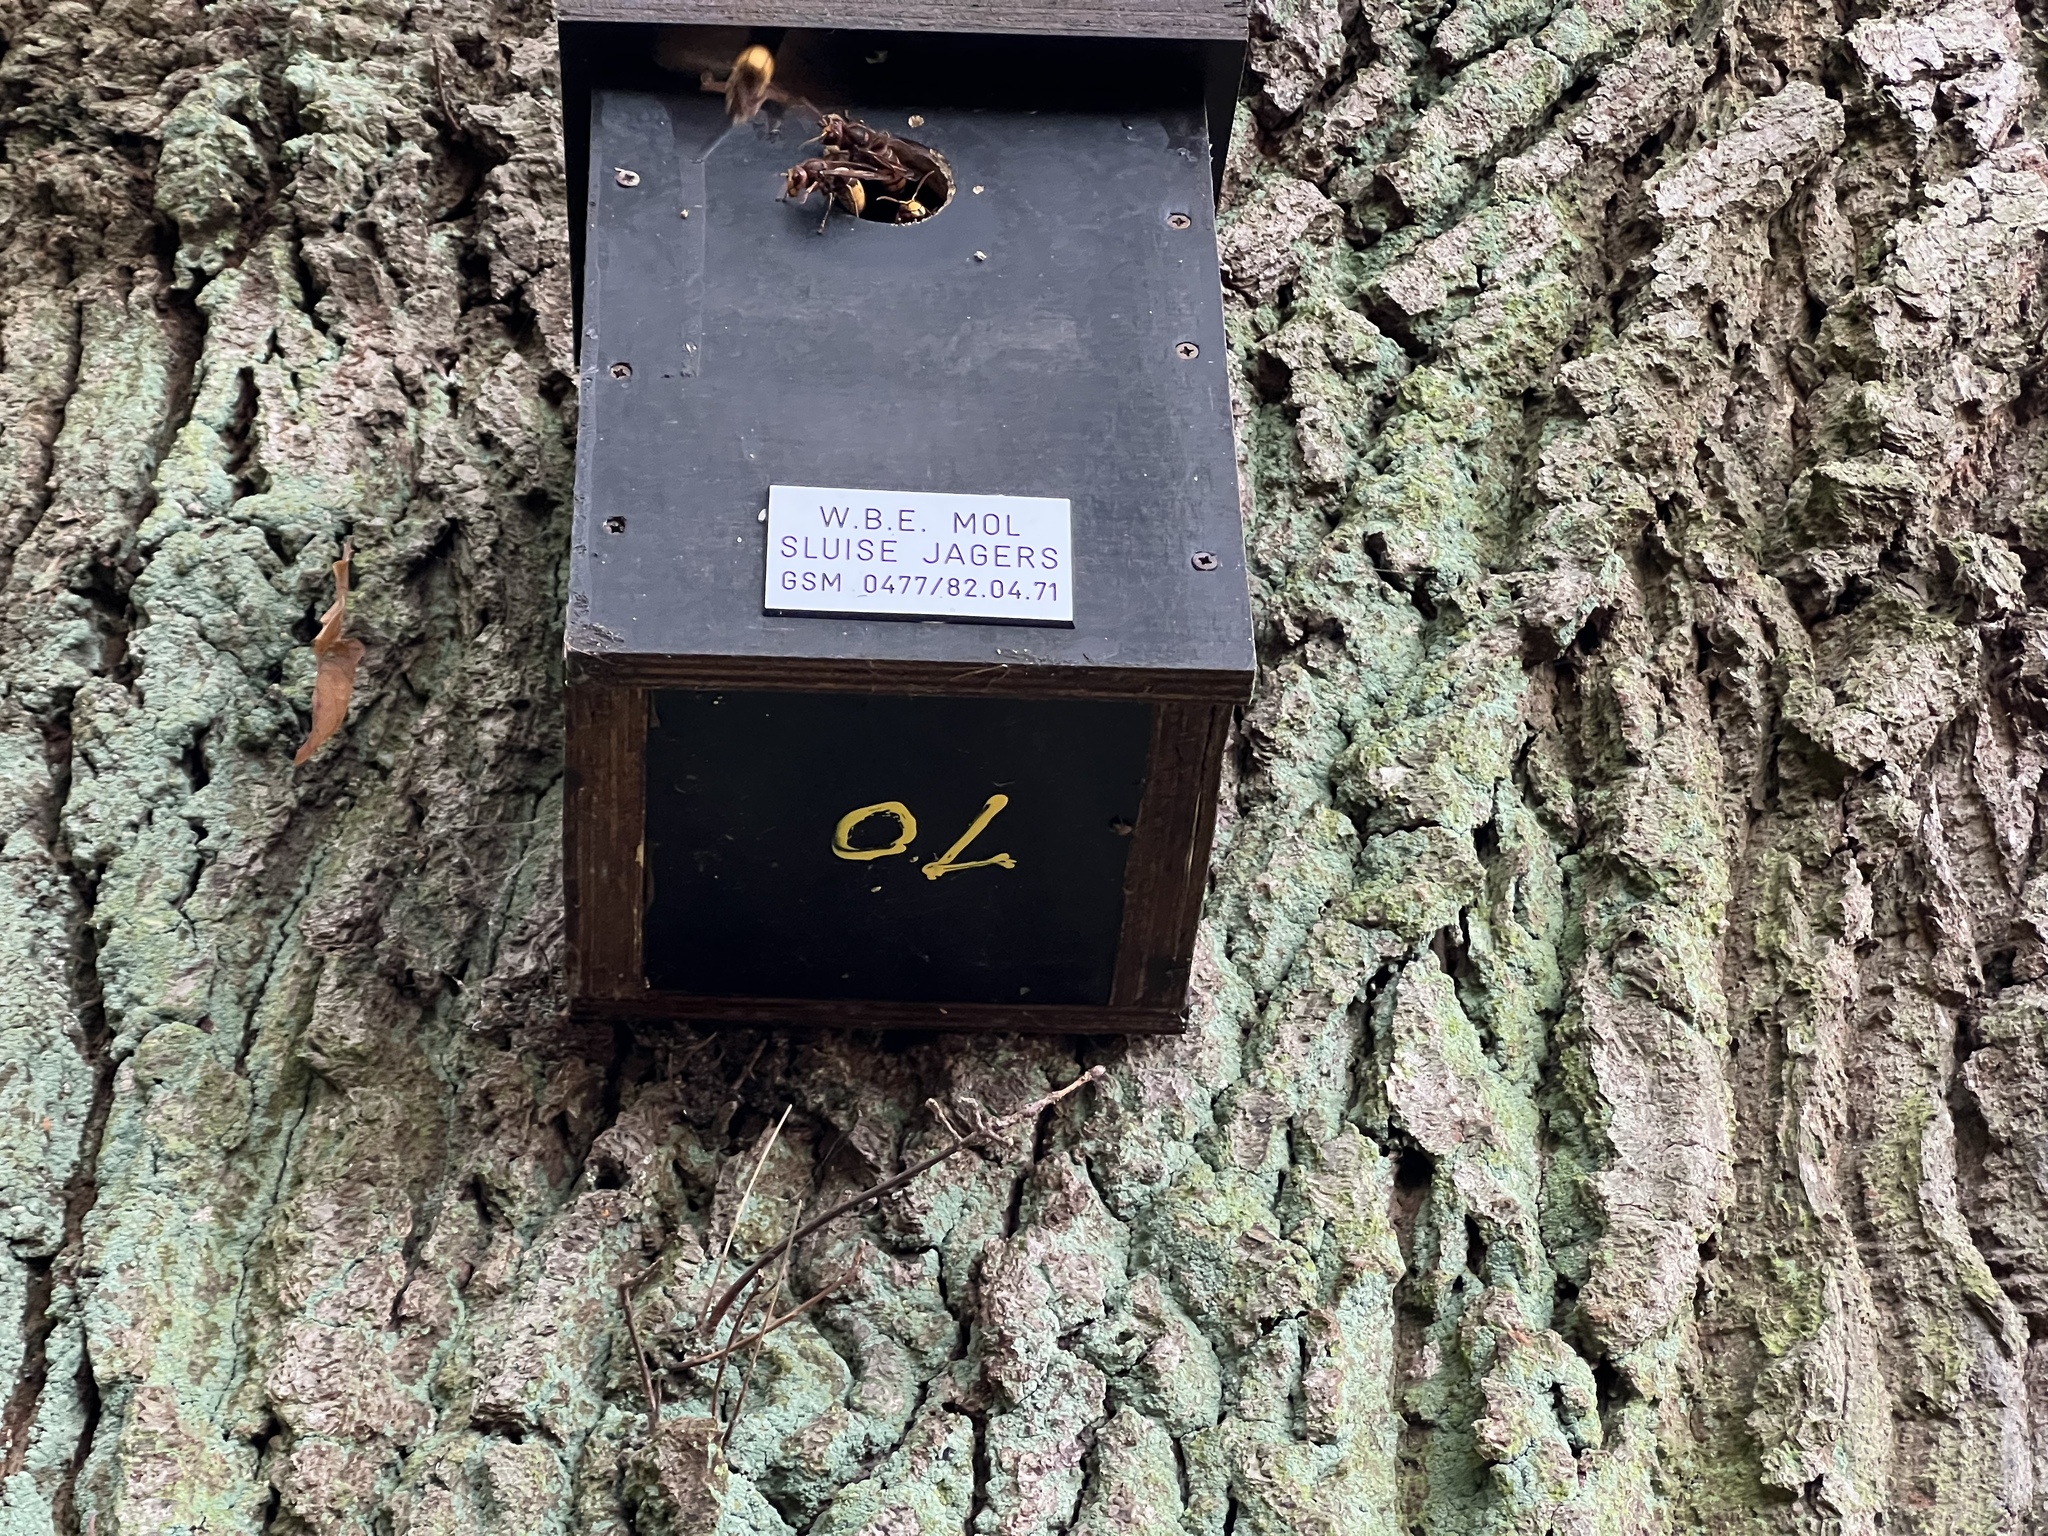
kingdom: Animalia
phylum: Arthropoda
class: Insecta
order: Hymenoptera
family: Vespidae
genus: Vespa
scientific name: Vespa crabro
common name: Hornet
